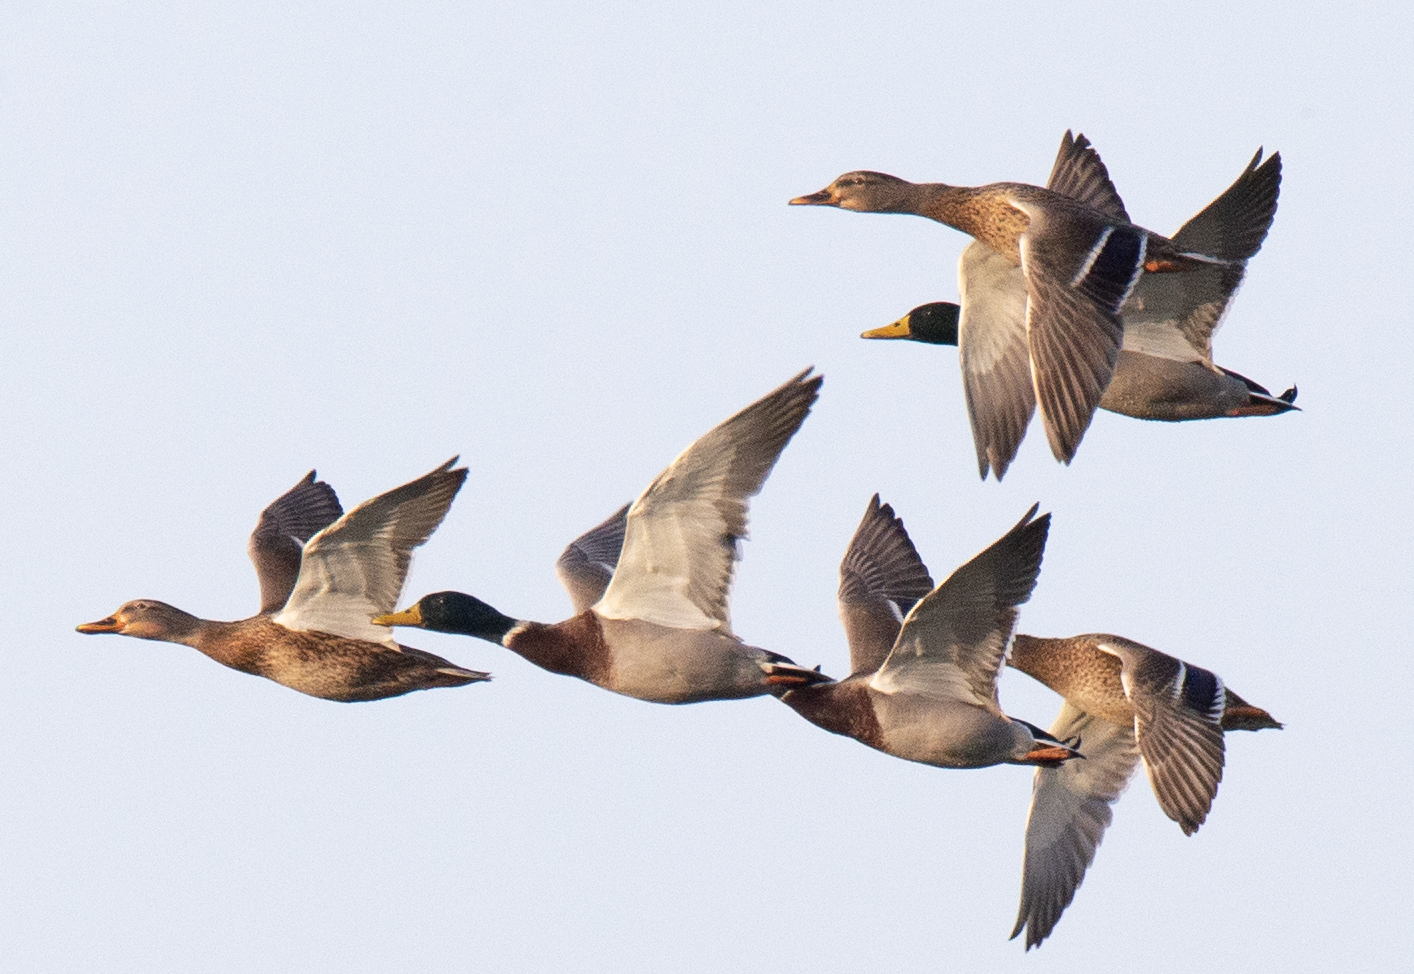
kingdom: Animalia
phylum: Chordata
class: Aves
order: Anseriformes
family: Anatidae
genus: Anas
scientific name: Anas platyrhynchos
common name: Mallard
